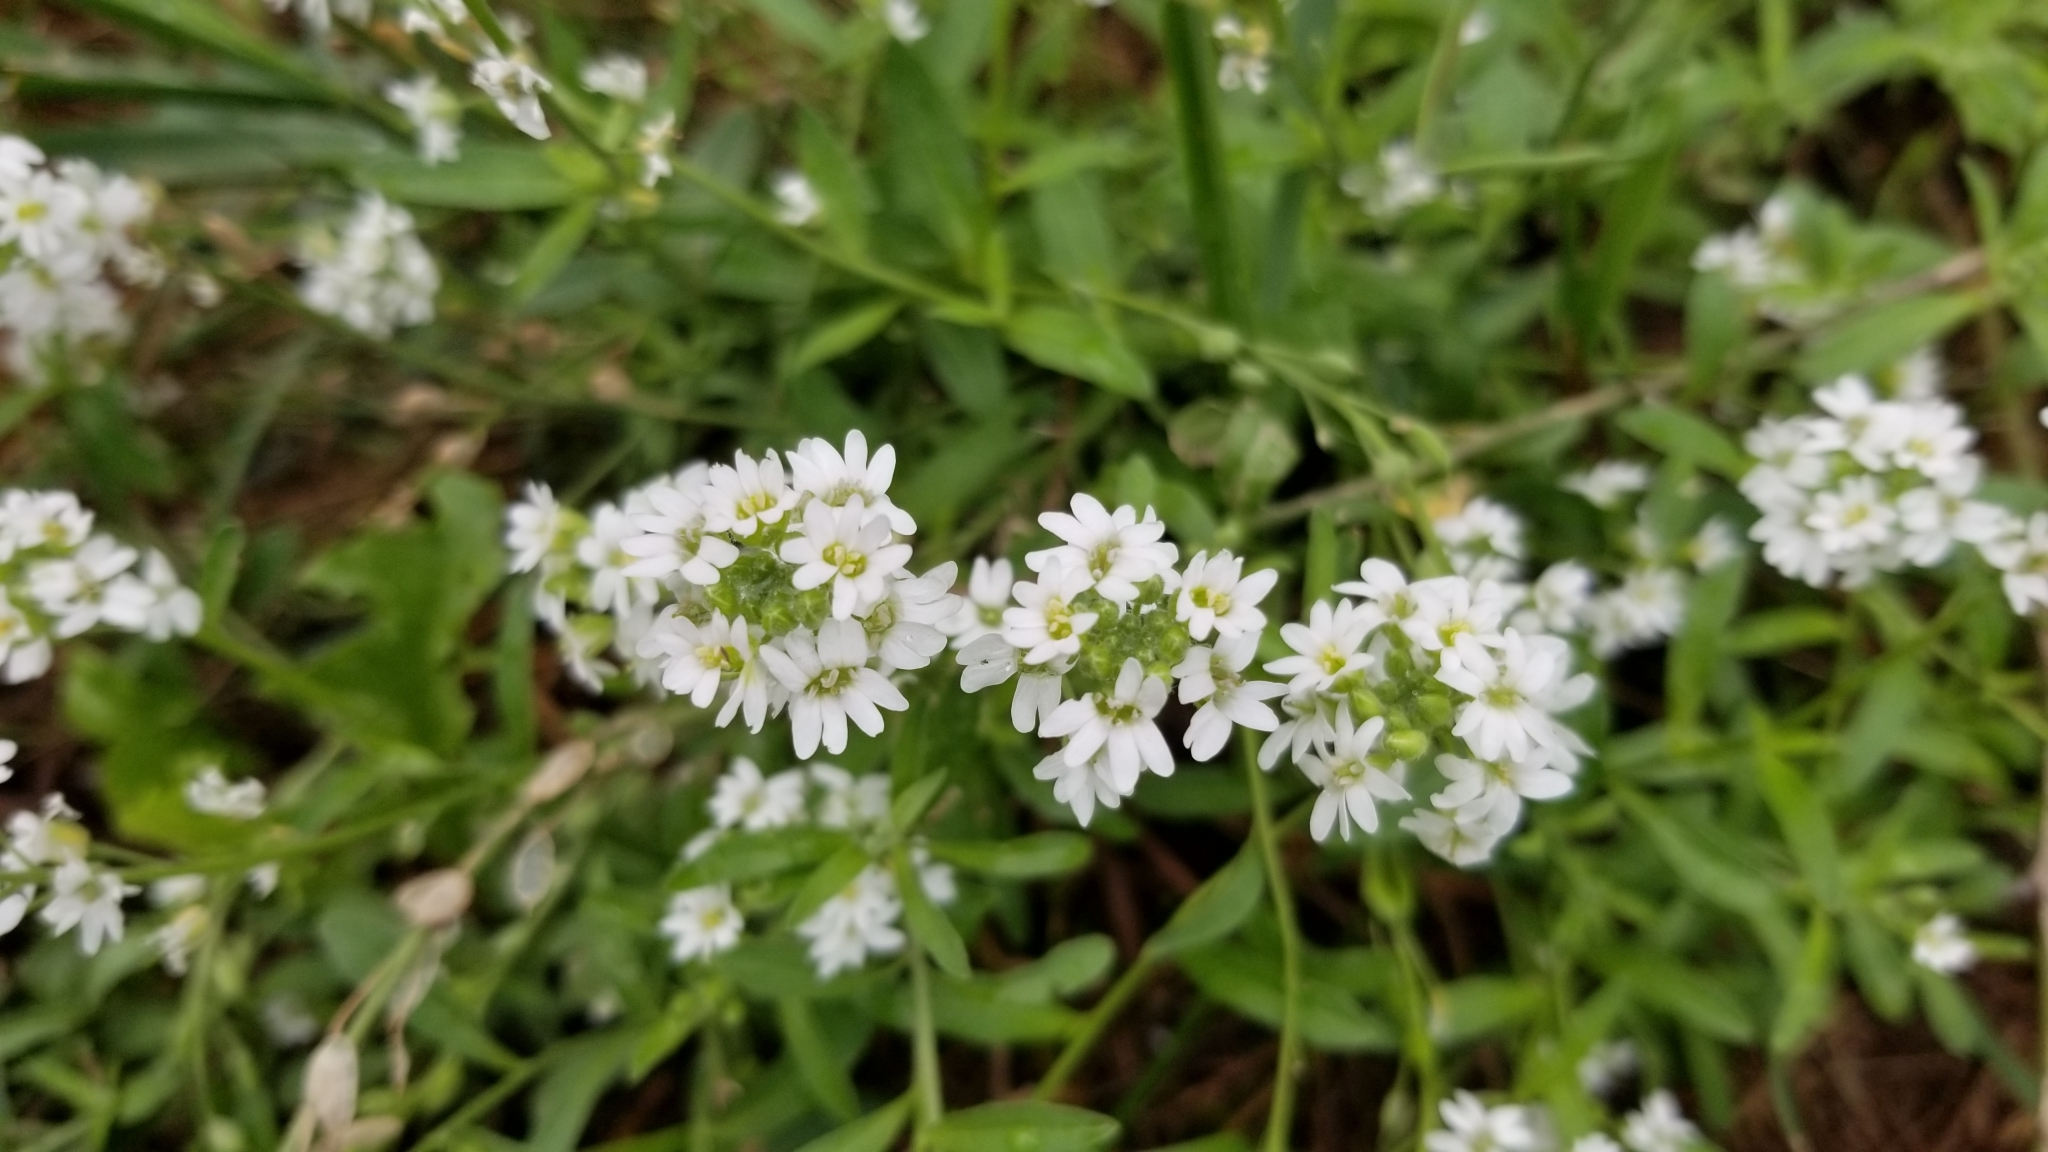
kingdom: Plantae
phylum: Tracheophyta
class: Magnoliopsida
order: Brassicales
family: Brassicaceae
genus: Berteroa
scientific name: Berteroa incana
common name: Hoary alison
